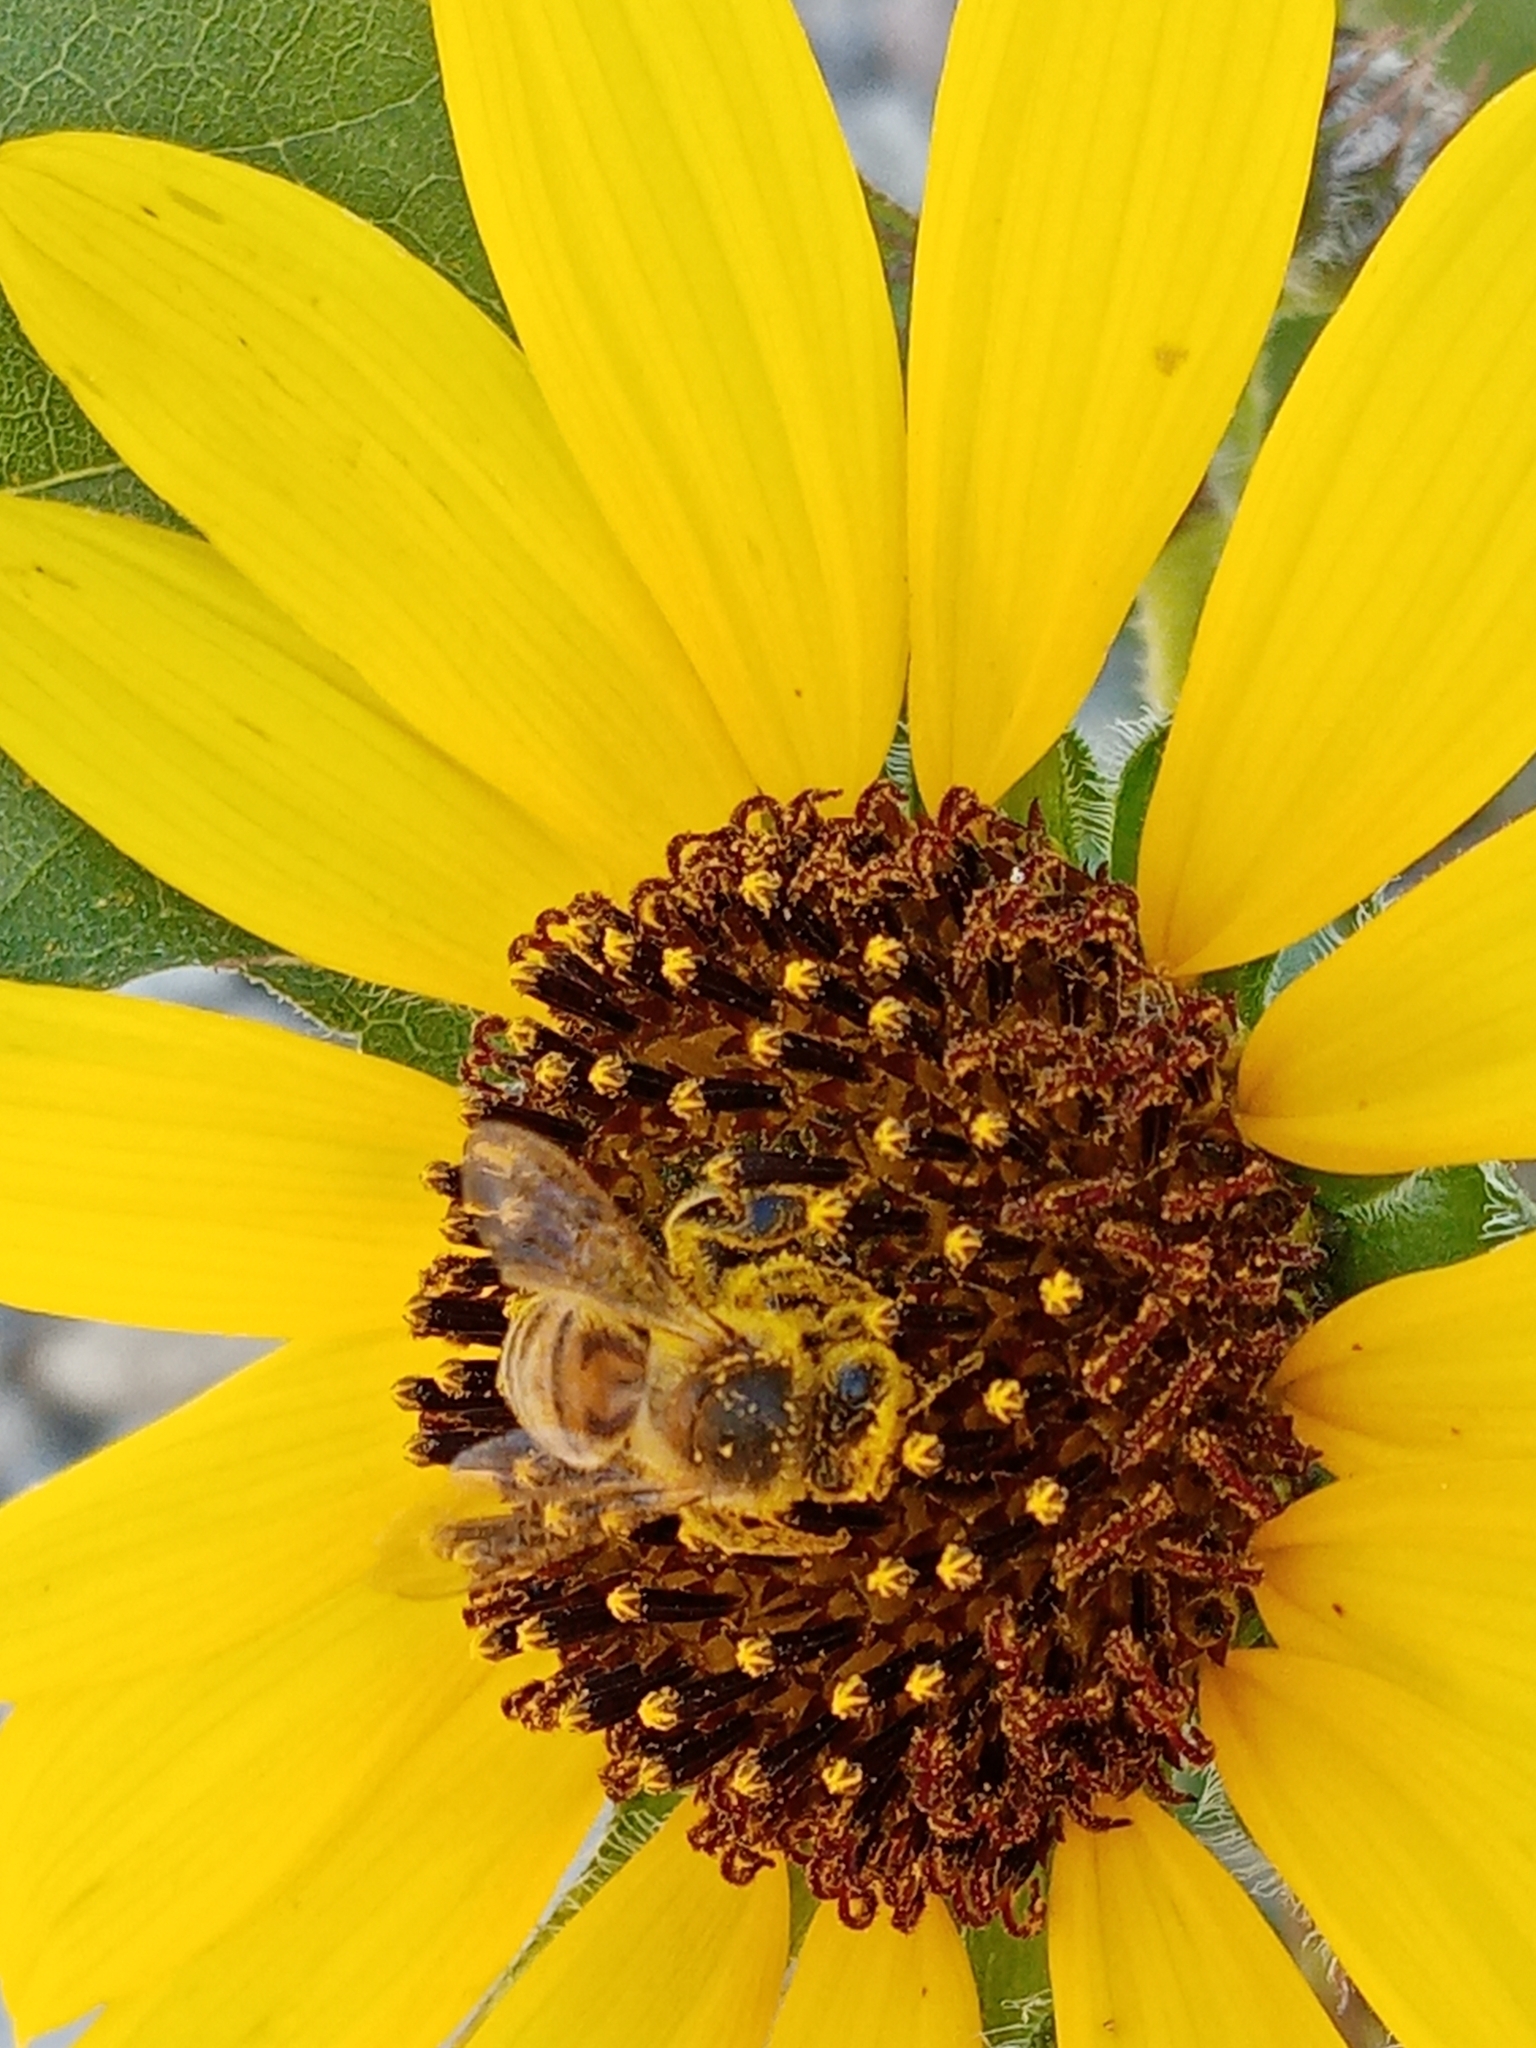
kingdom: Animalia
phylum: Arthropoda
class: Insecta
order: Hymenoptera
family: Apidae
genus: Apis
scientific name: Apis mellifera
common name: Honey bee
